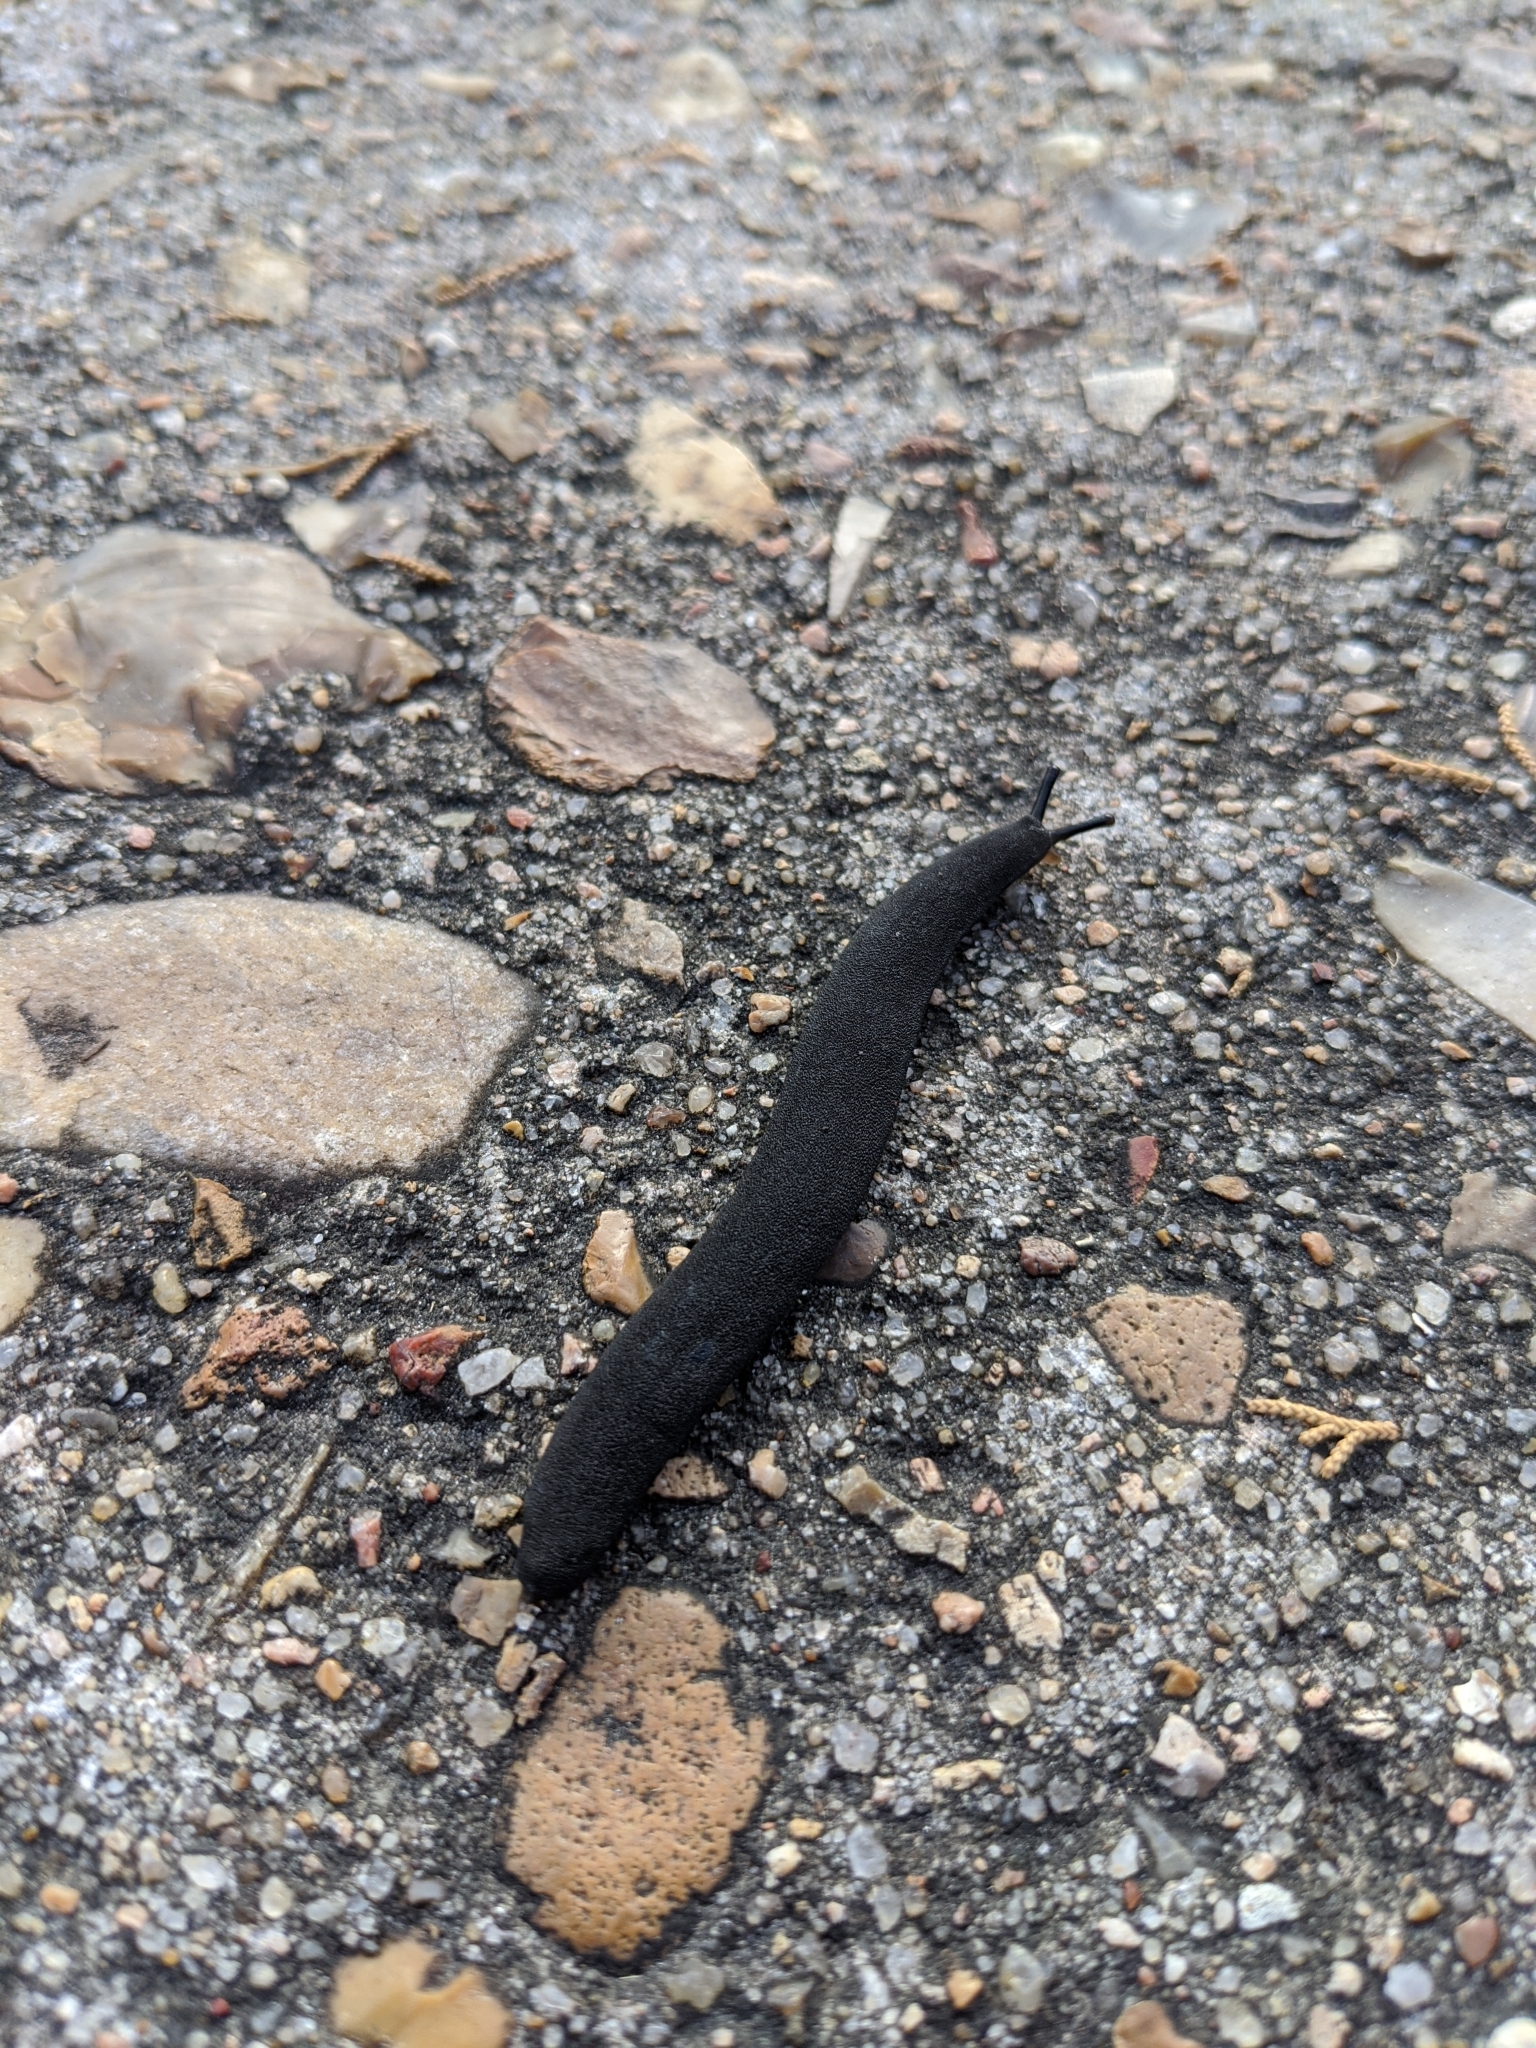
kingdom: Animalia
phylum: Mollusca
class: Gastropoda
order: Systellommatophora
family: Veronicellidae
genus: Belocaulus
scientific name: Belocaulus angustipes
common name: Black velvet leatherleaf slug
